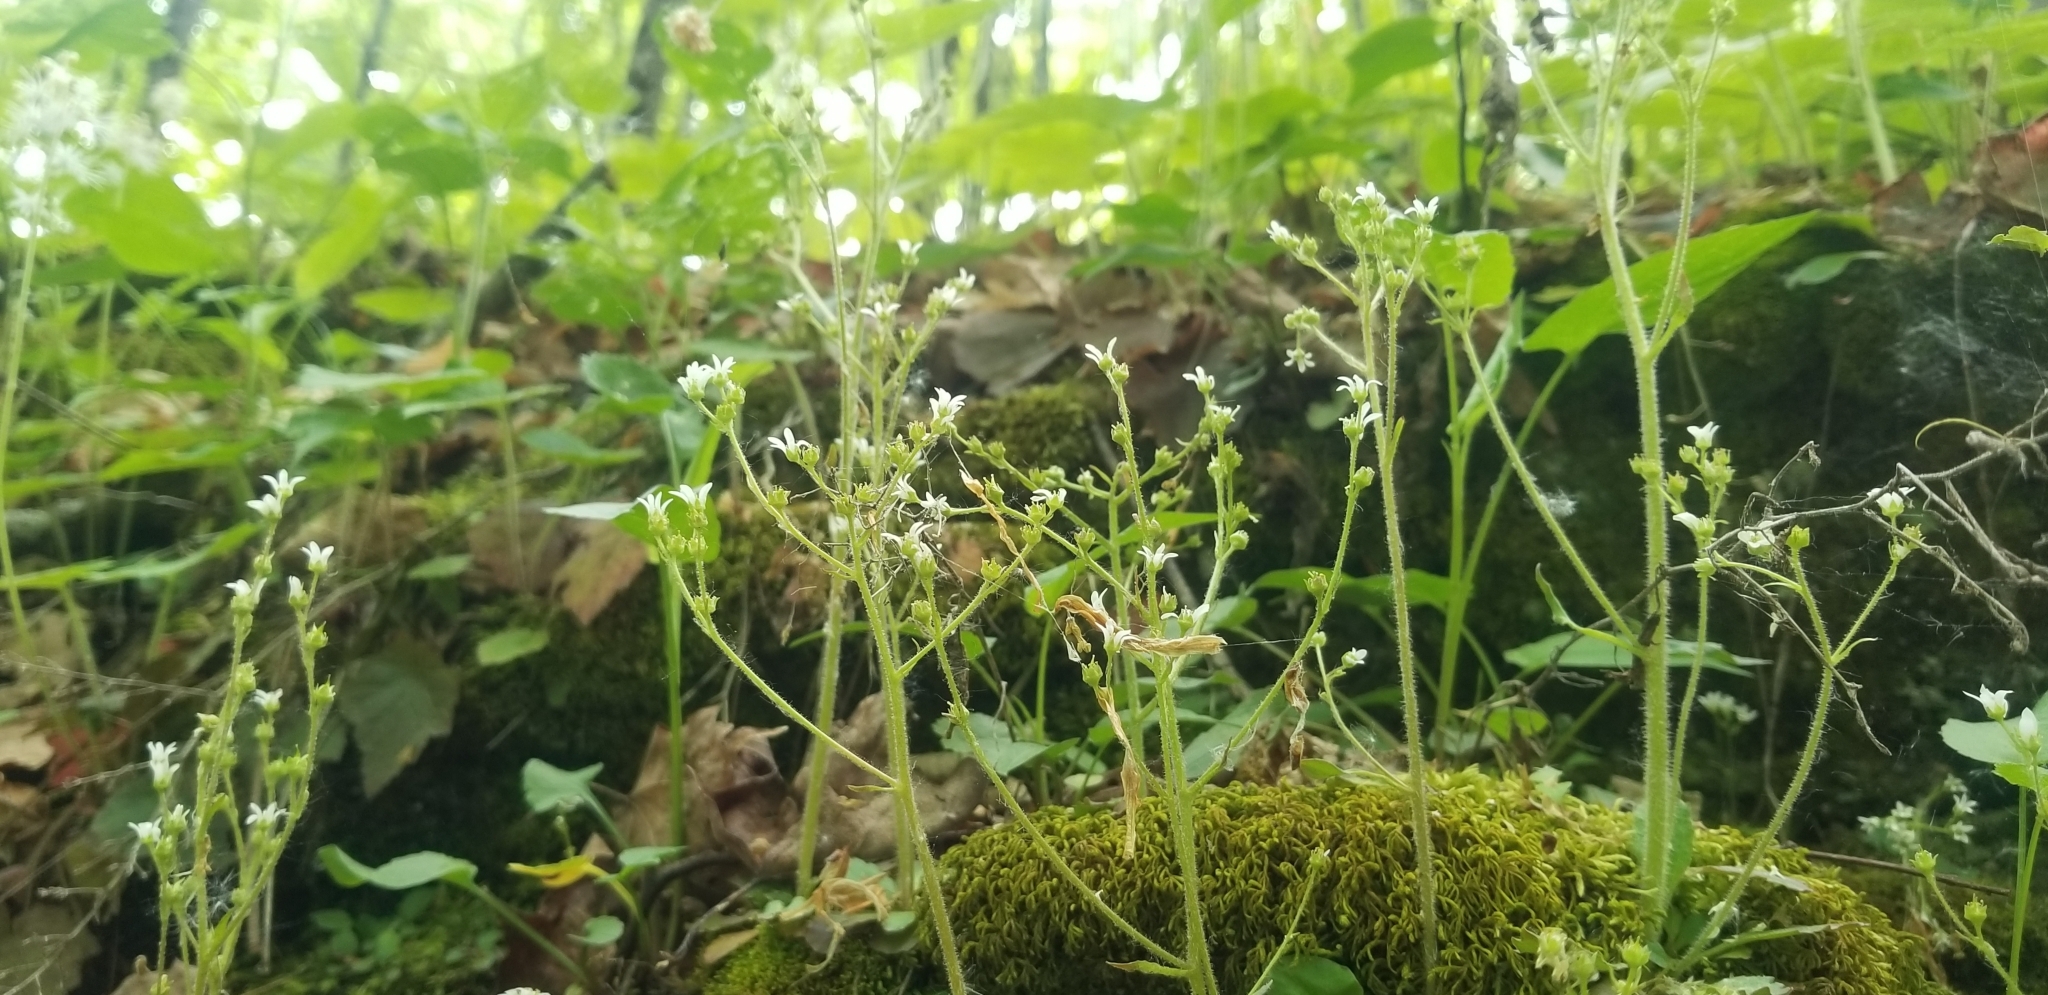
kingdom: Plantae
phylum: Tracheophyta
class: Magnoliopsida
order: Saxifragales
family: Saxifragaceae
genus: Micranthes
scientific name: Micranthes virginiensis
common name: Early saxifrage
